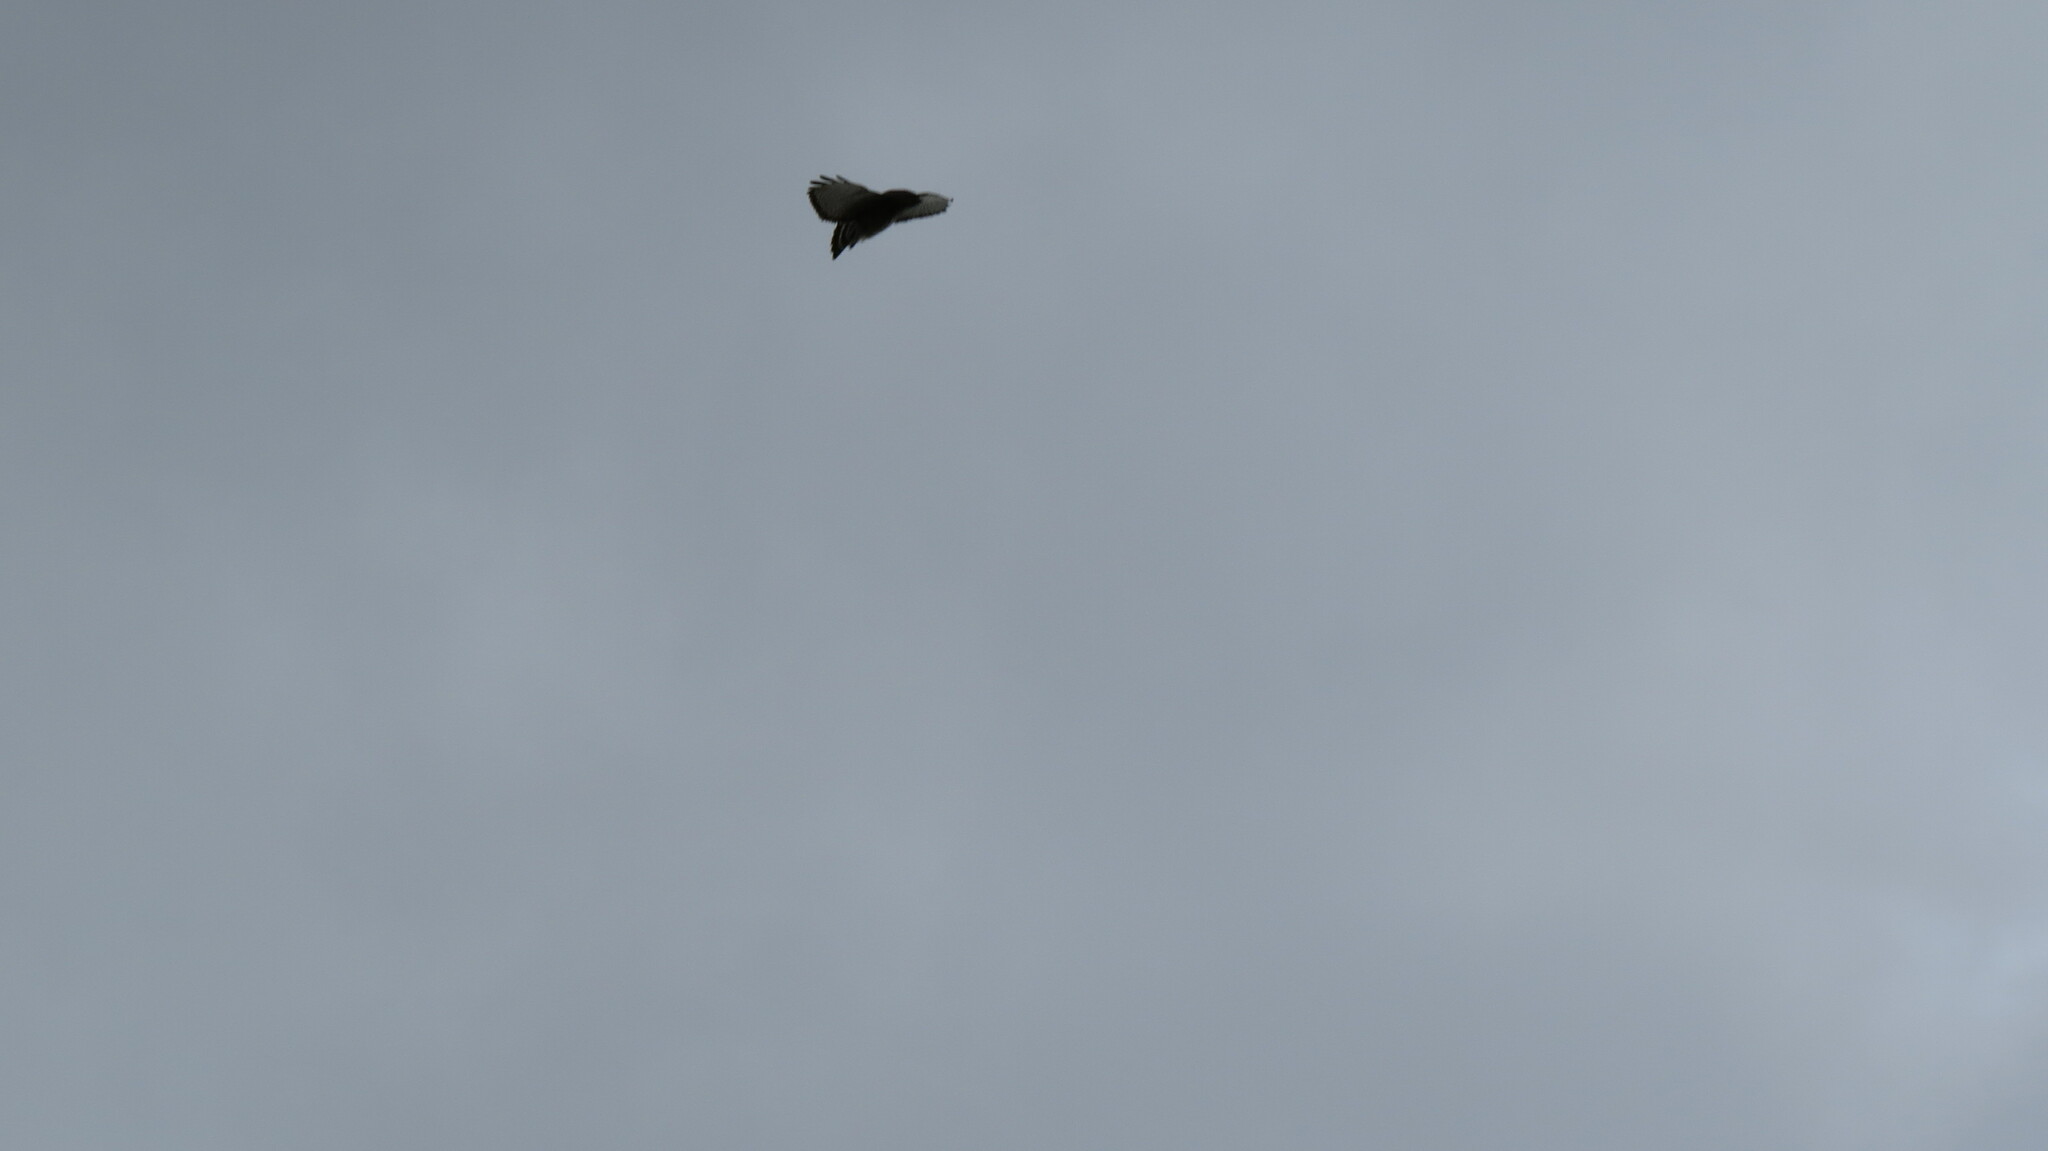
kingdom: Animalia
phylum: Chordata
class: Aves
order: Accipitriformes
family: Accipitridae
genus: Buteo
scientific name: Buteo platypterus
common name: Broad-winged hawk
